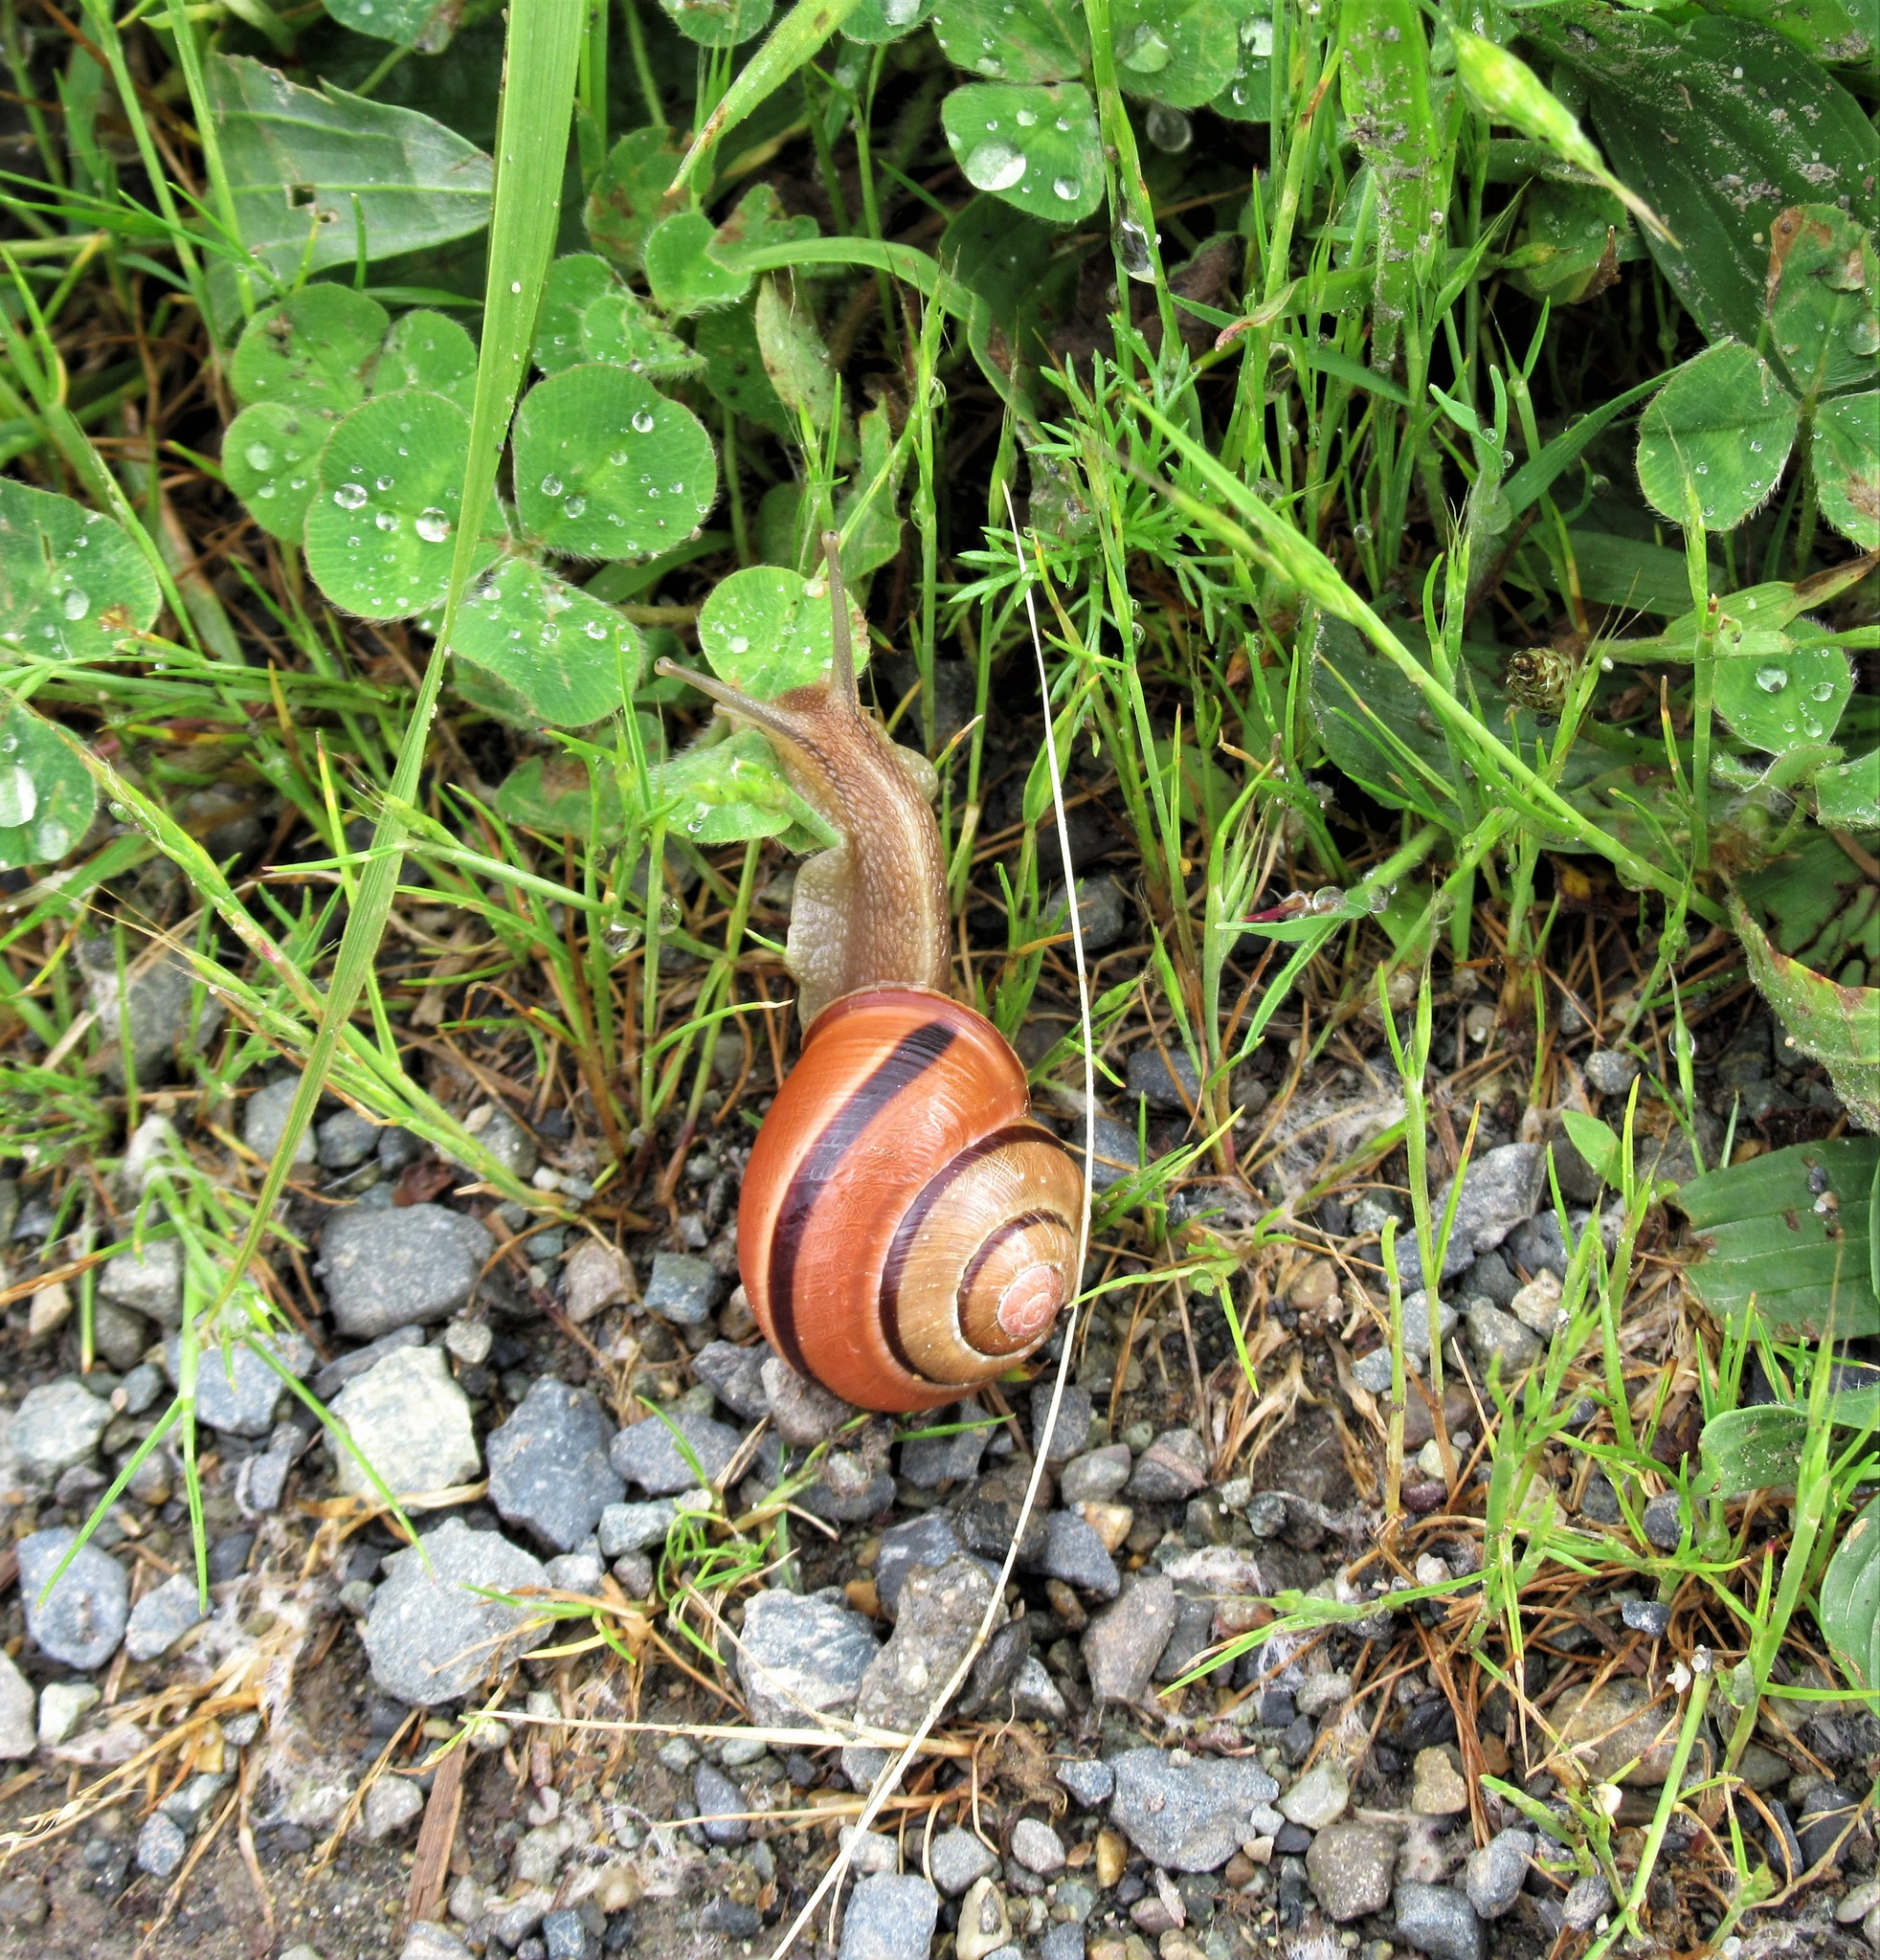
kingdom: Animalia
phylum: Mollusca
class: Gastropoda
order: Stylommatophora
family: Helicidae
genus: Cepaea
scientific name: Cepaea nemoralis
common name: Grovesnail
